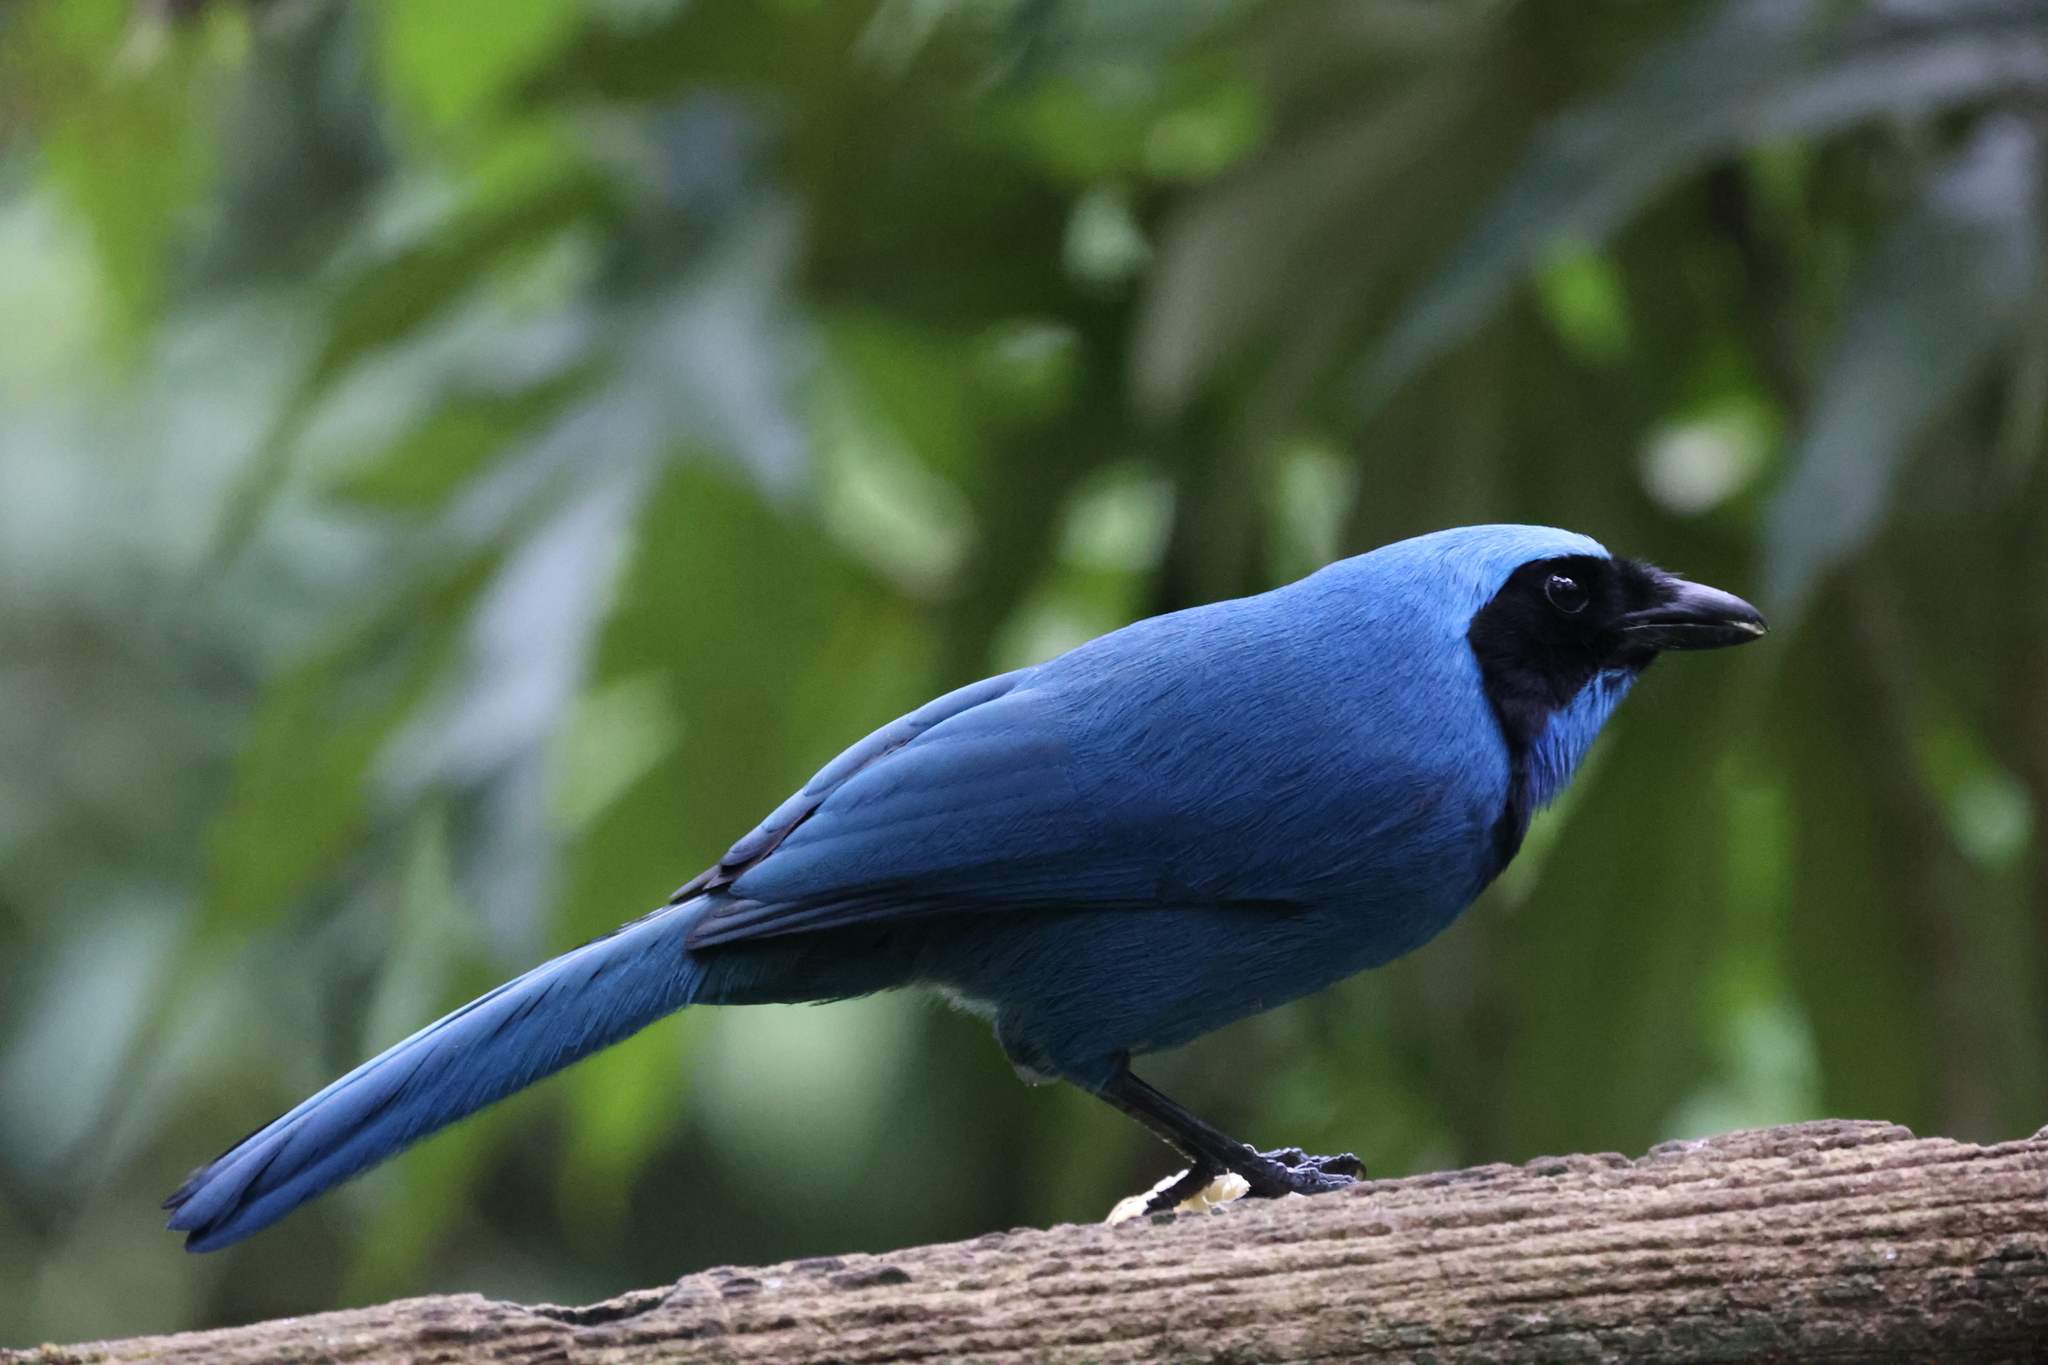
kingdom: Animalia
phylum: Chordata
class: Aves
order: Passeriformes
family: Corvidae
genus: Cyanolyca
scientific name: Cyanolyca turcosa
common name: Turquoise jay
